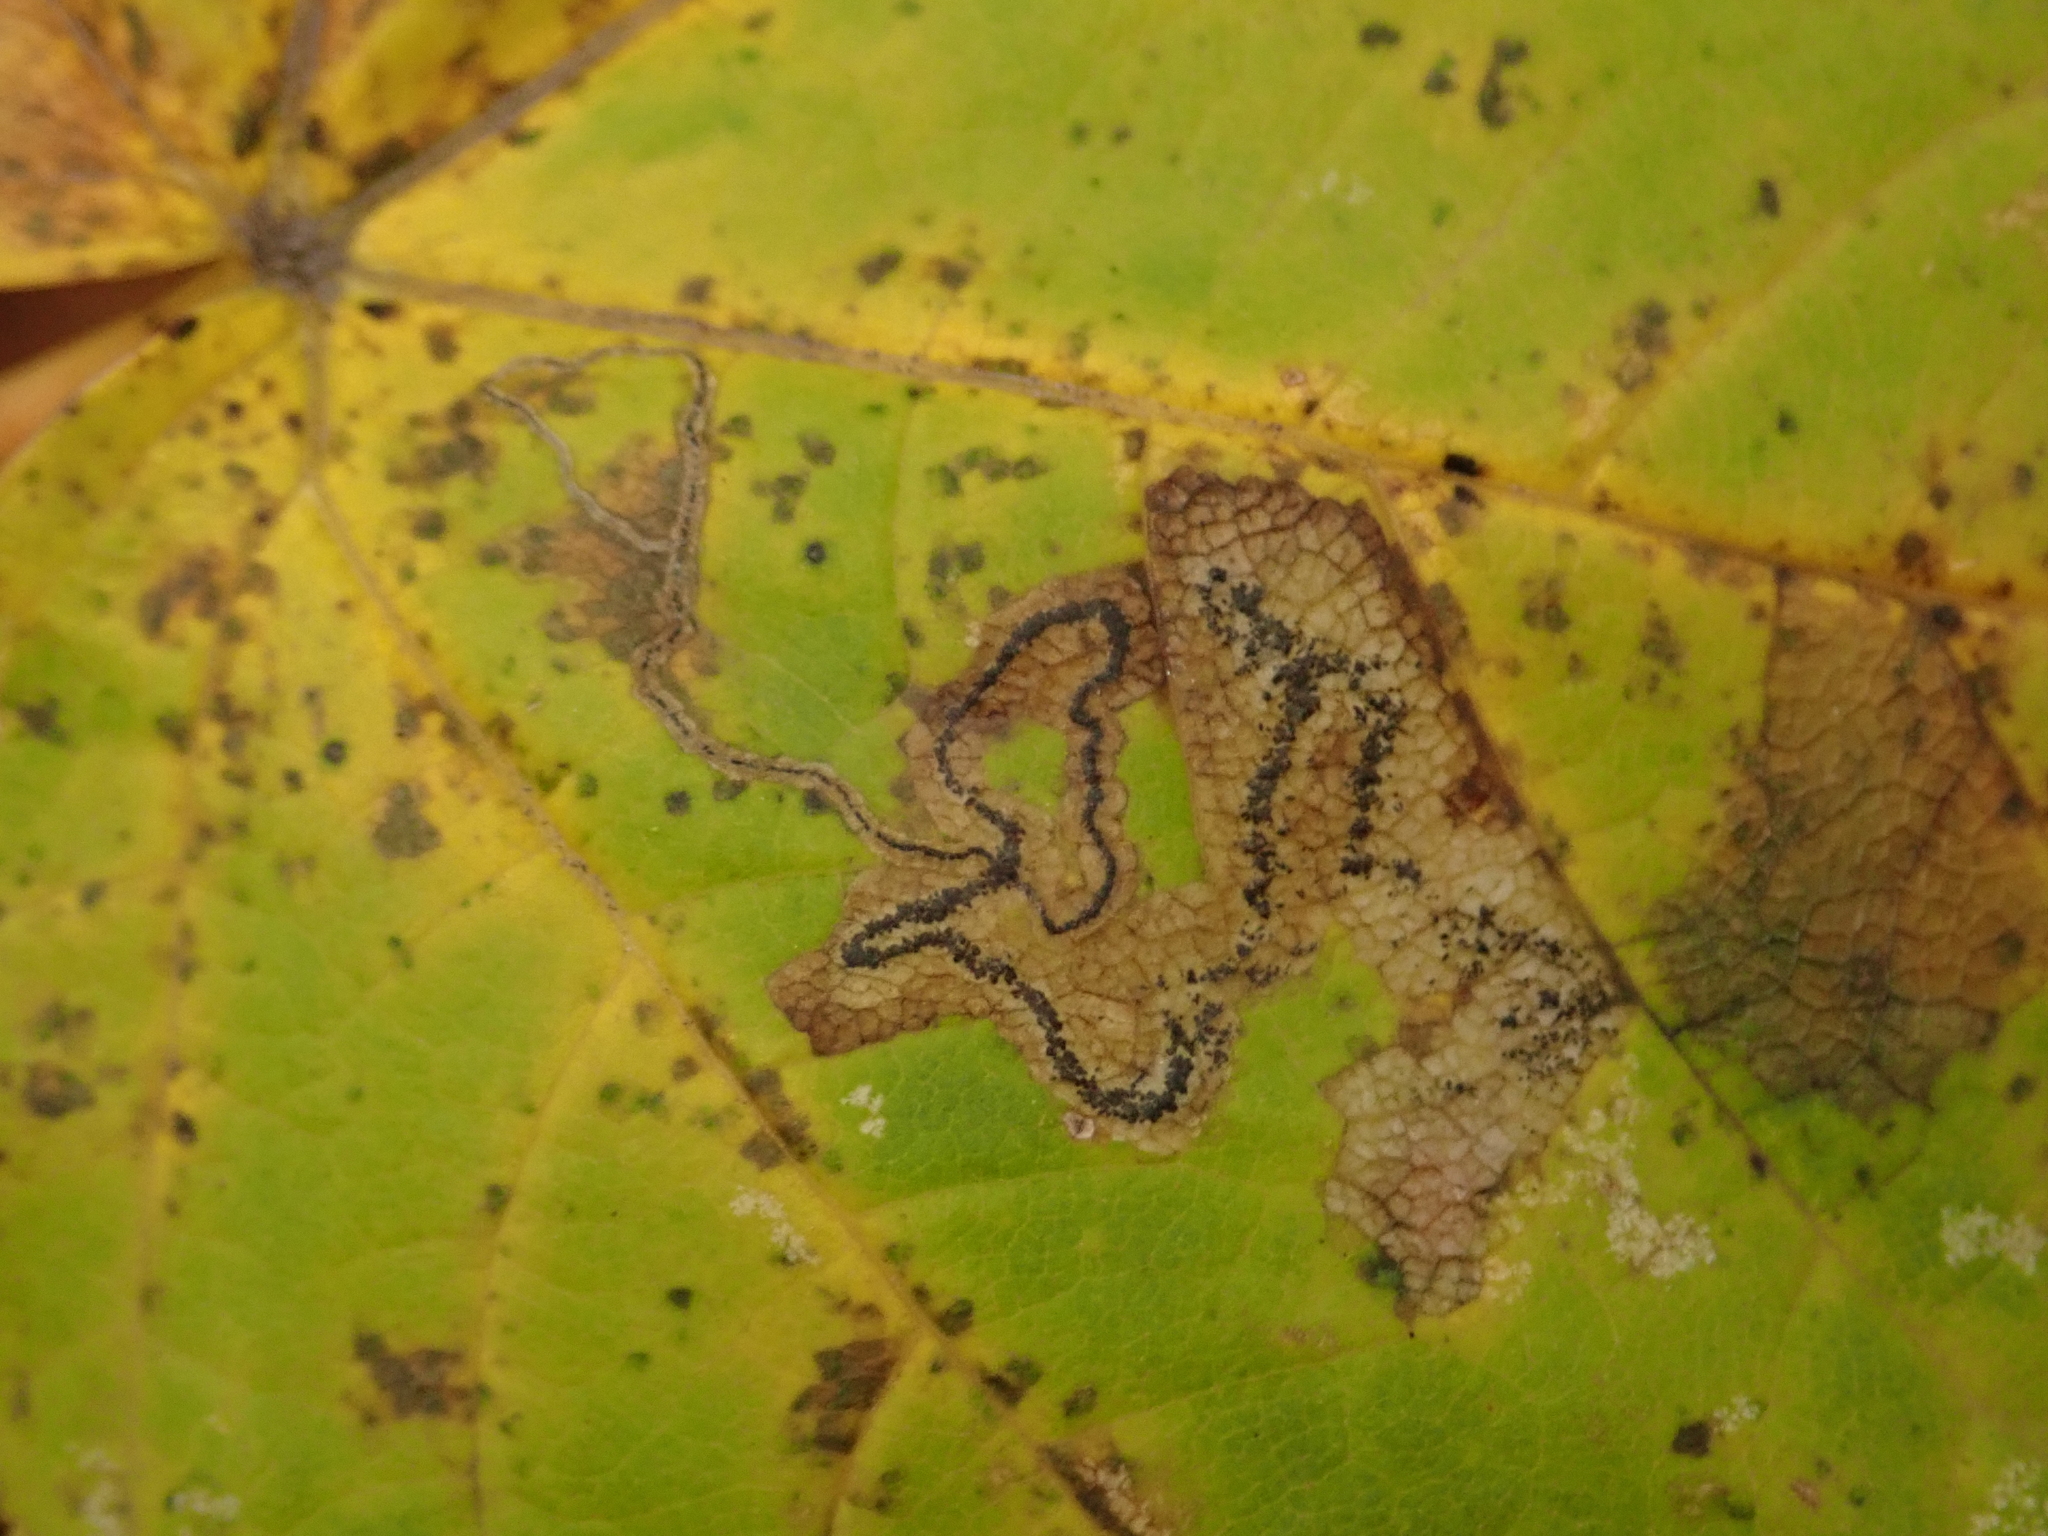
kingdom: Animalia
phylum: Arthropoda
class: Insecta
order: Lepidoptera
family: Nepticulidae
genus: Stigmella
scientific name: Stigmella speciosa
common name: Barred sycamore pigmy
